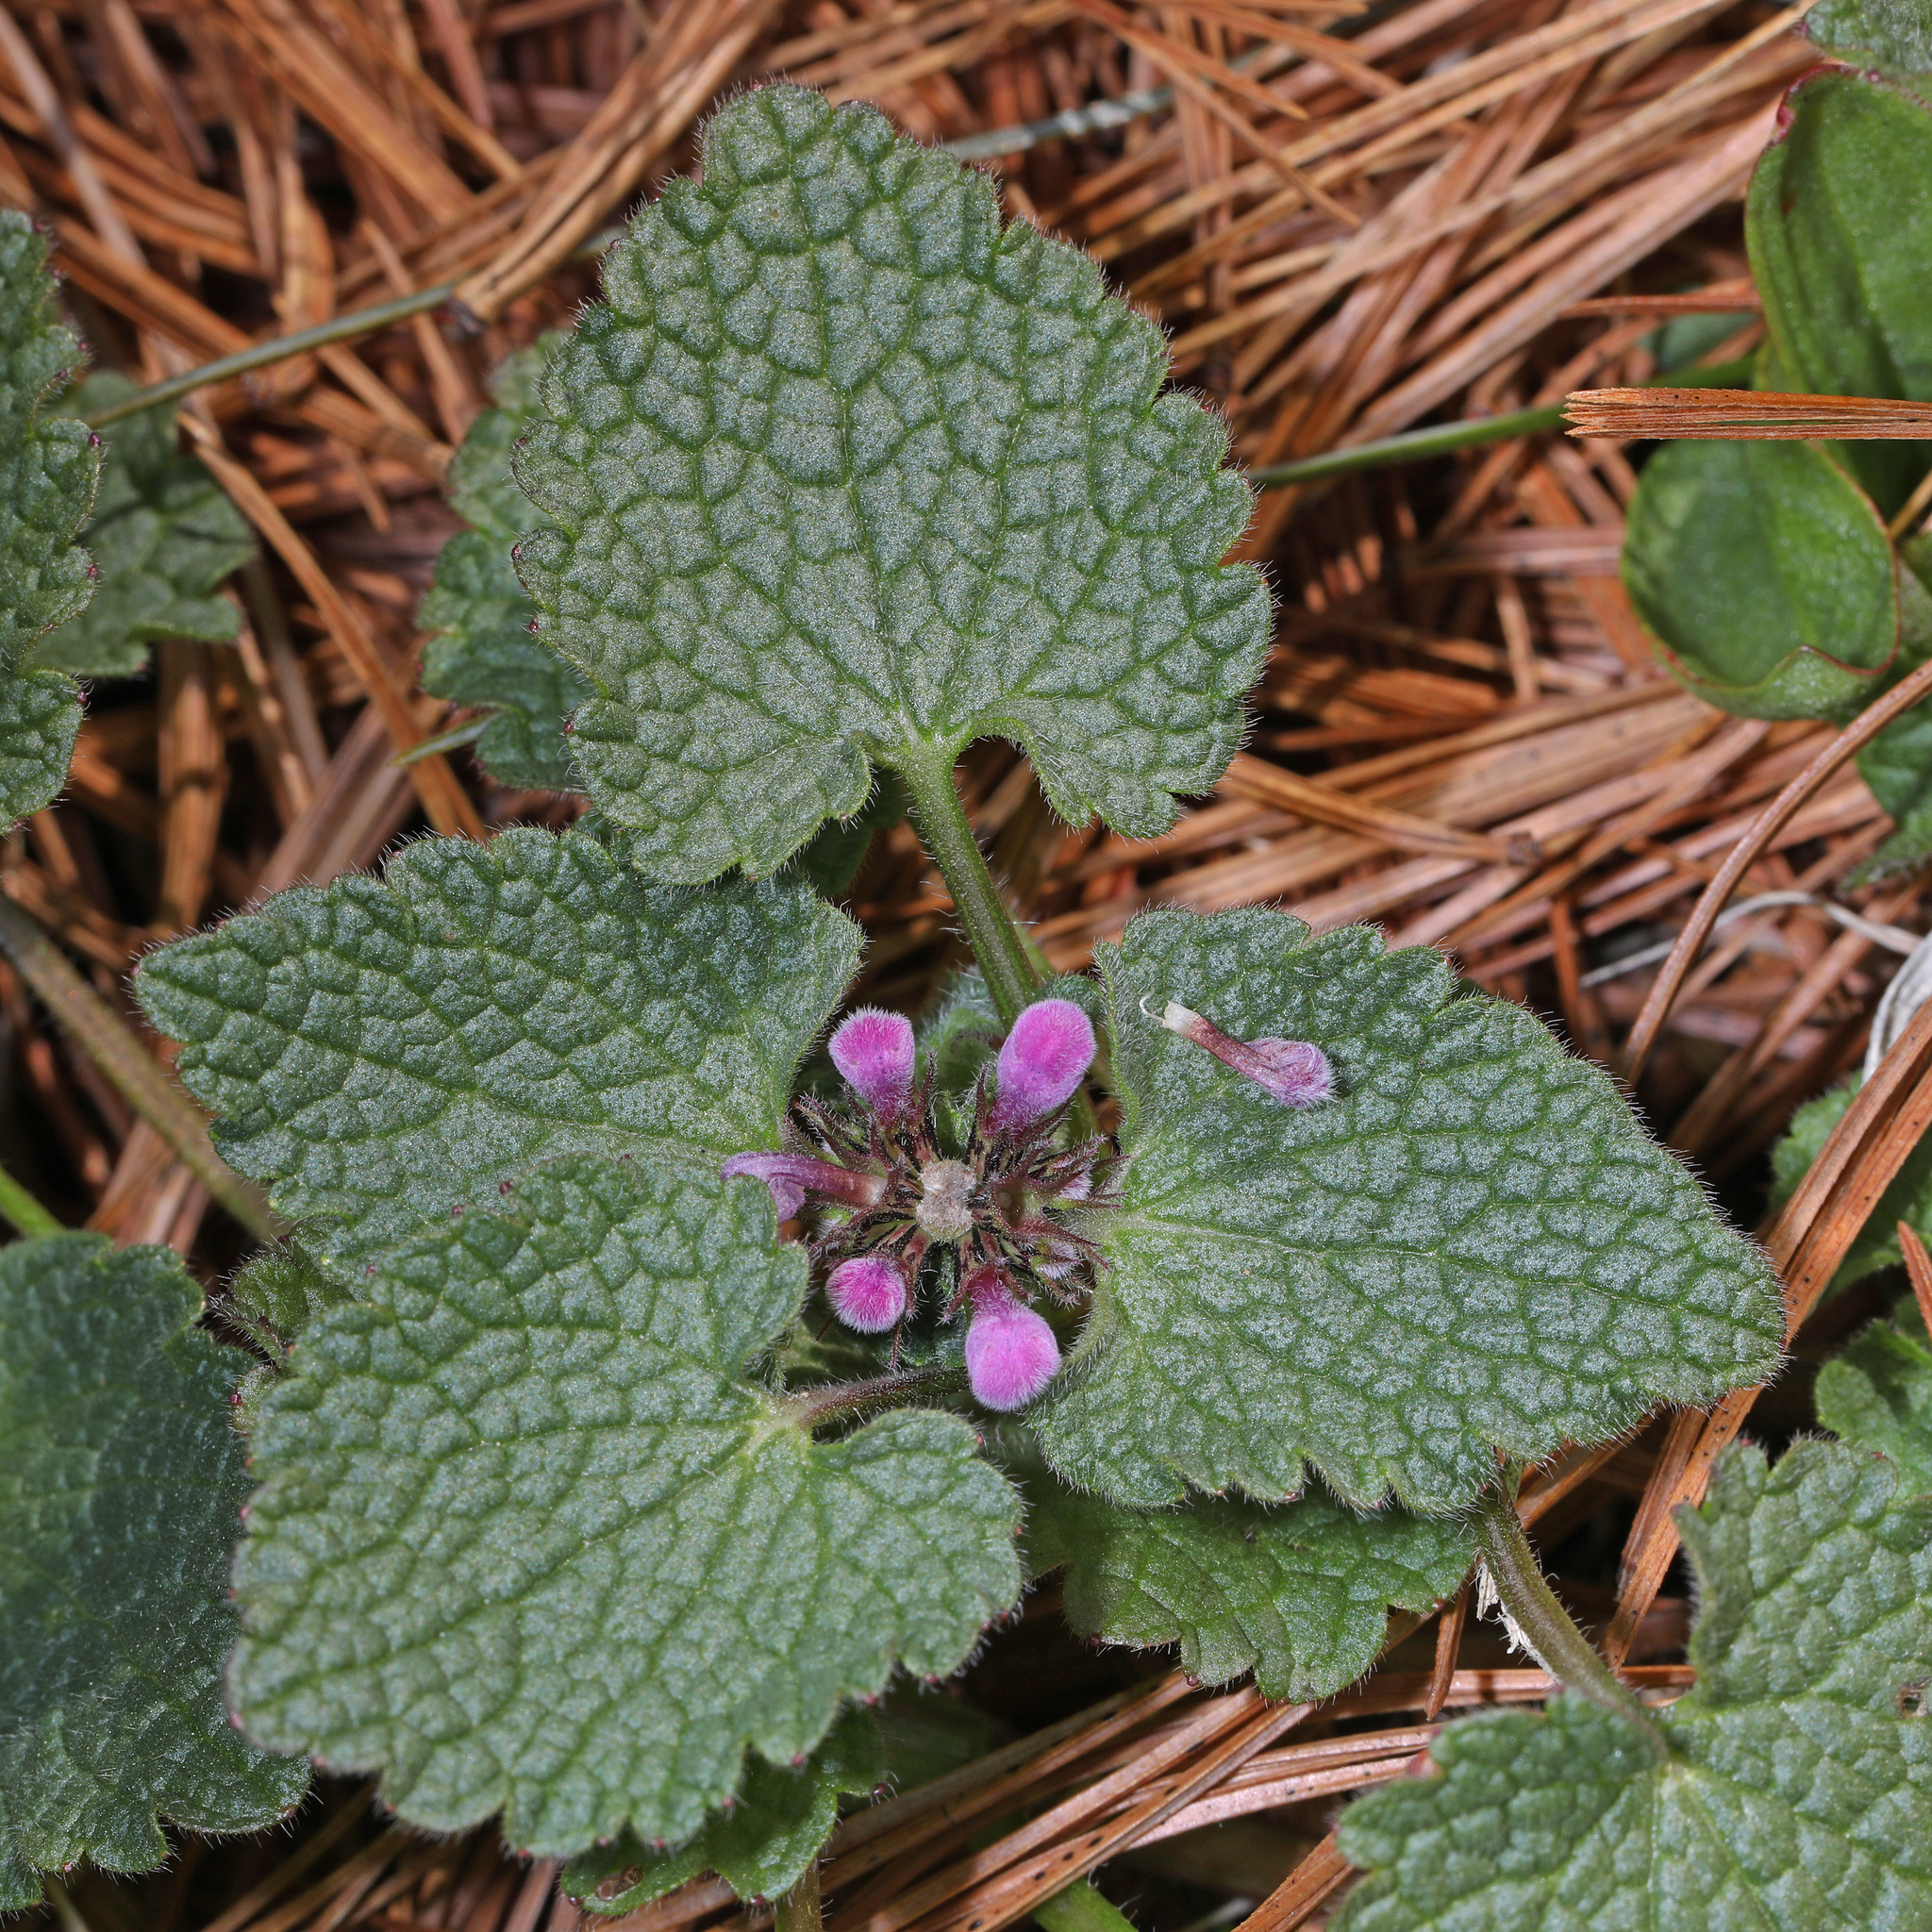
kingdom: Plantae
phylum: Tracheophyta
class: Magnoliopsida
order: Lamiales
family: Lamiaceae
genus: Lamium
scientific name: Lamium purpureum
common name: Red dead-nettle
